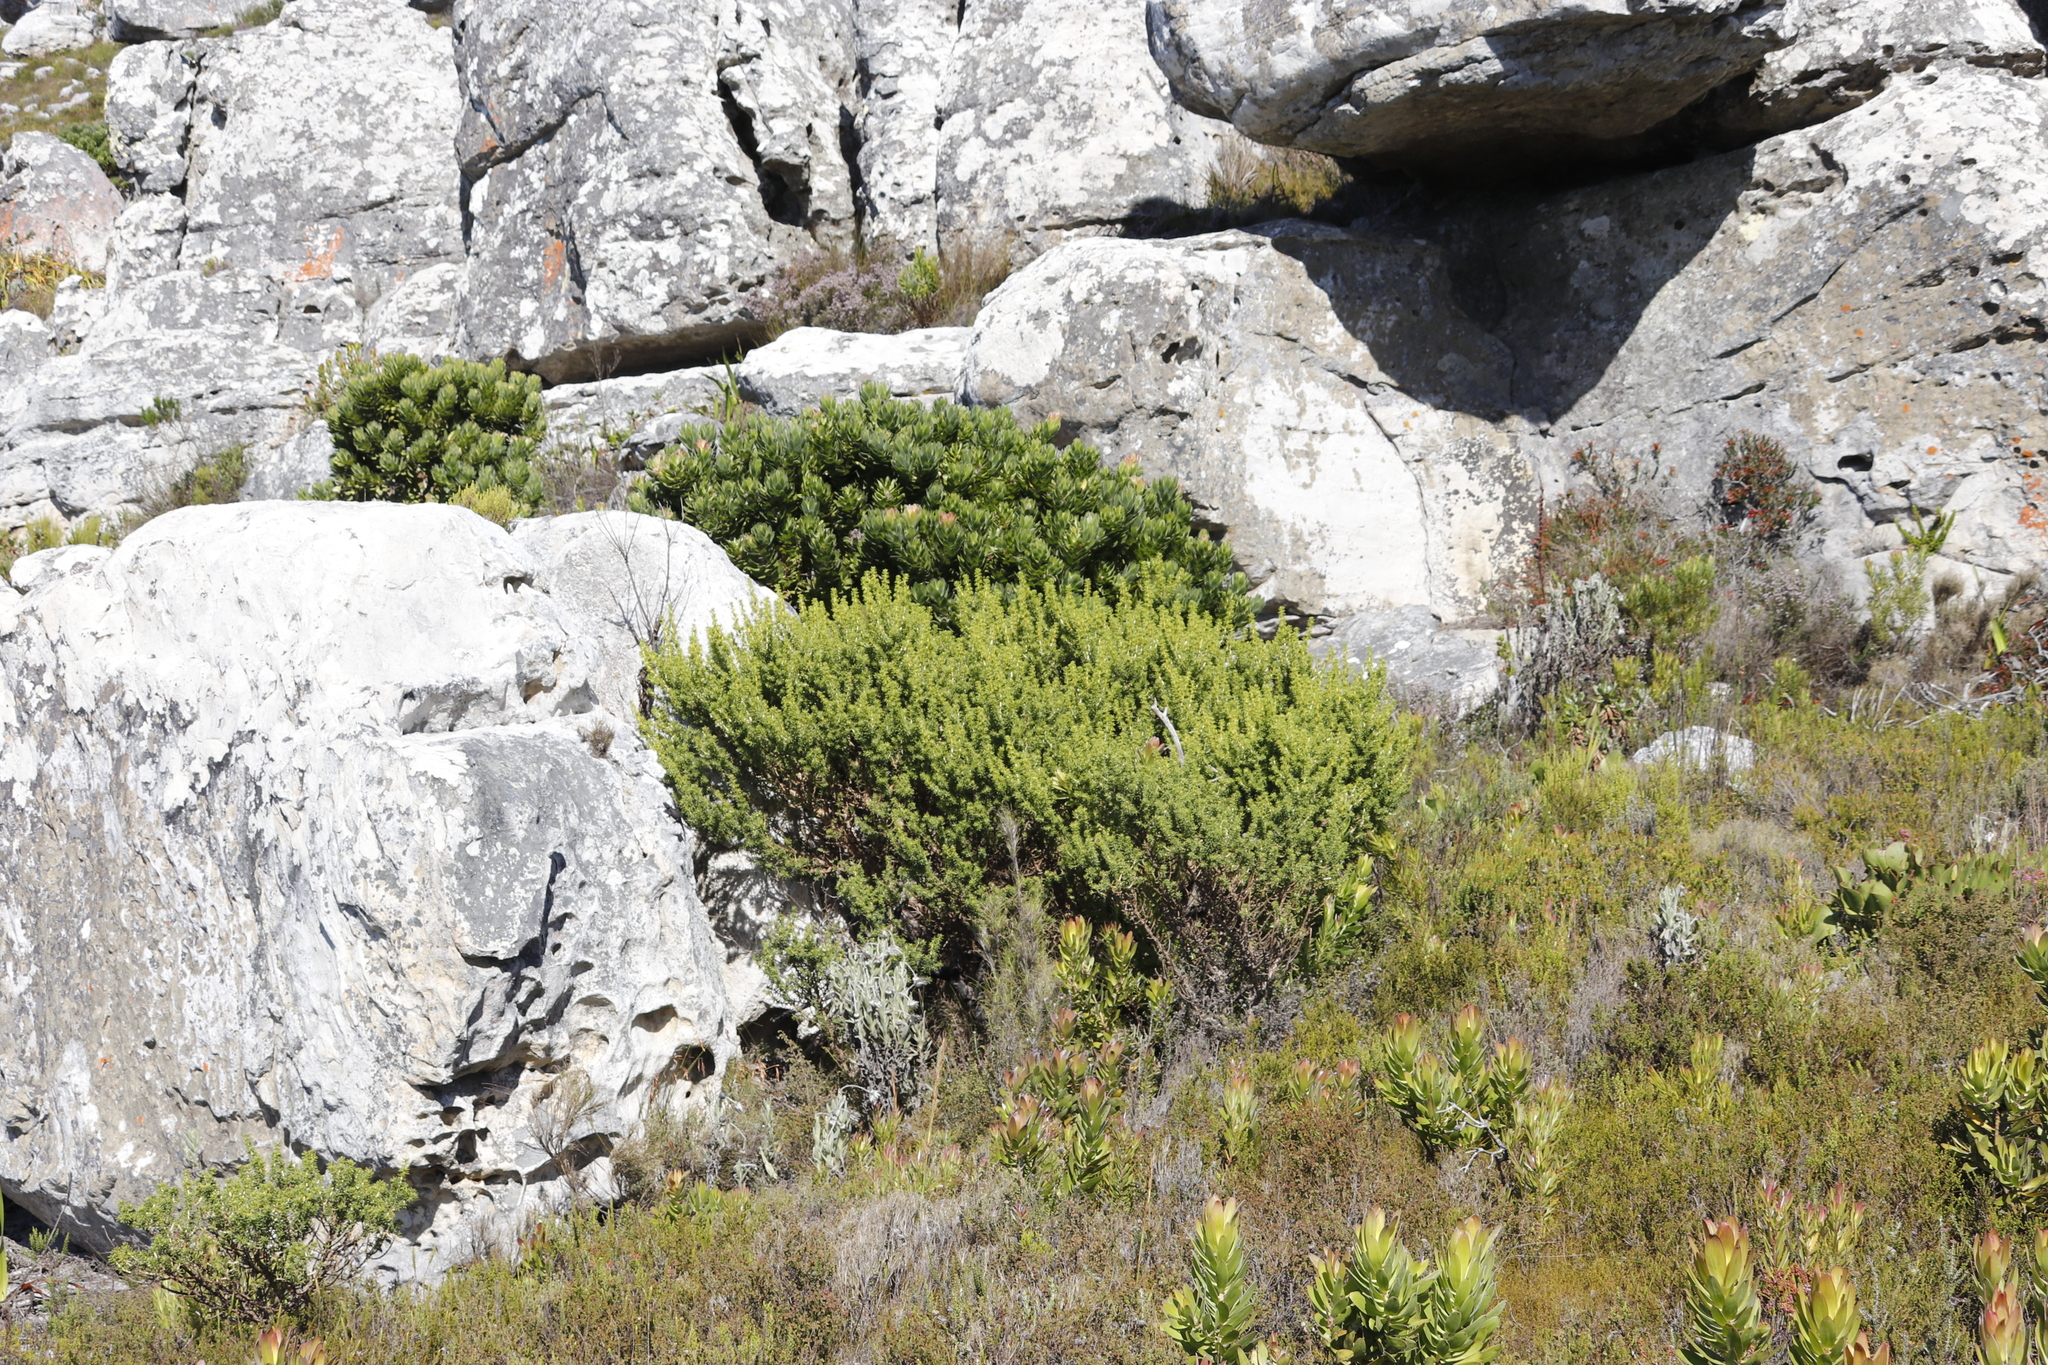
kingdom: Plantae
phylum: Tracheophyta
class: Magnoliopsida
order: Fabales
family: Fabaceae
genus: Aspalathus
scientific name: Aspalathus capensis
